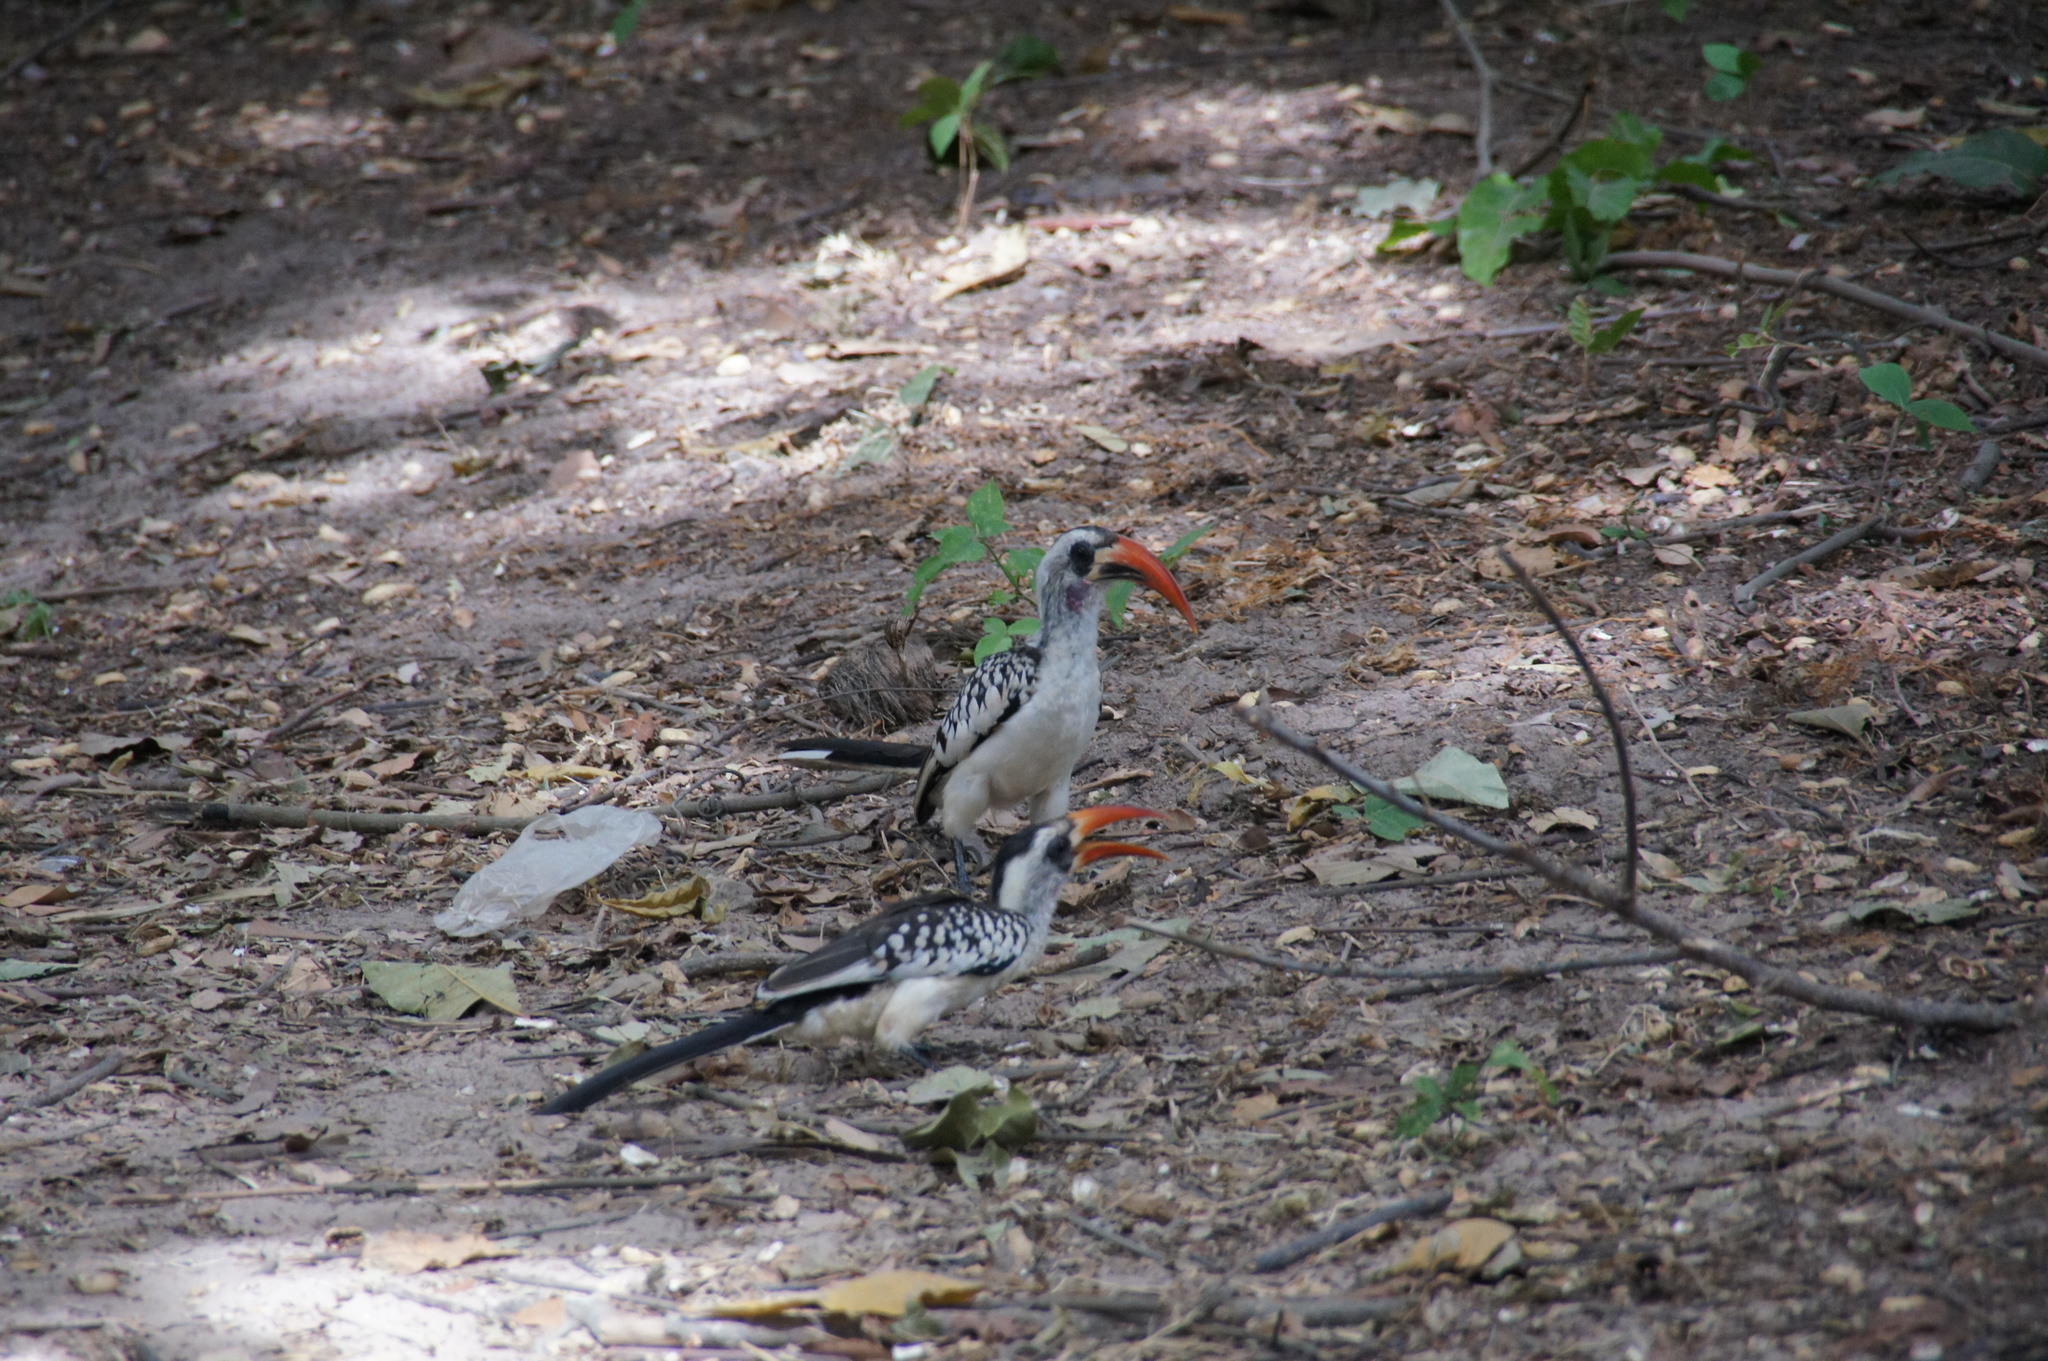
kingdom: Animalia
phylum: Chordata
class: Aves
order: Bucerotiformes
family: Bucerotidae
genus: Tockus
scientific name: Tockus kempi
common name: Western red-billed hornbill
